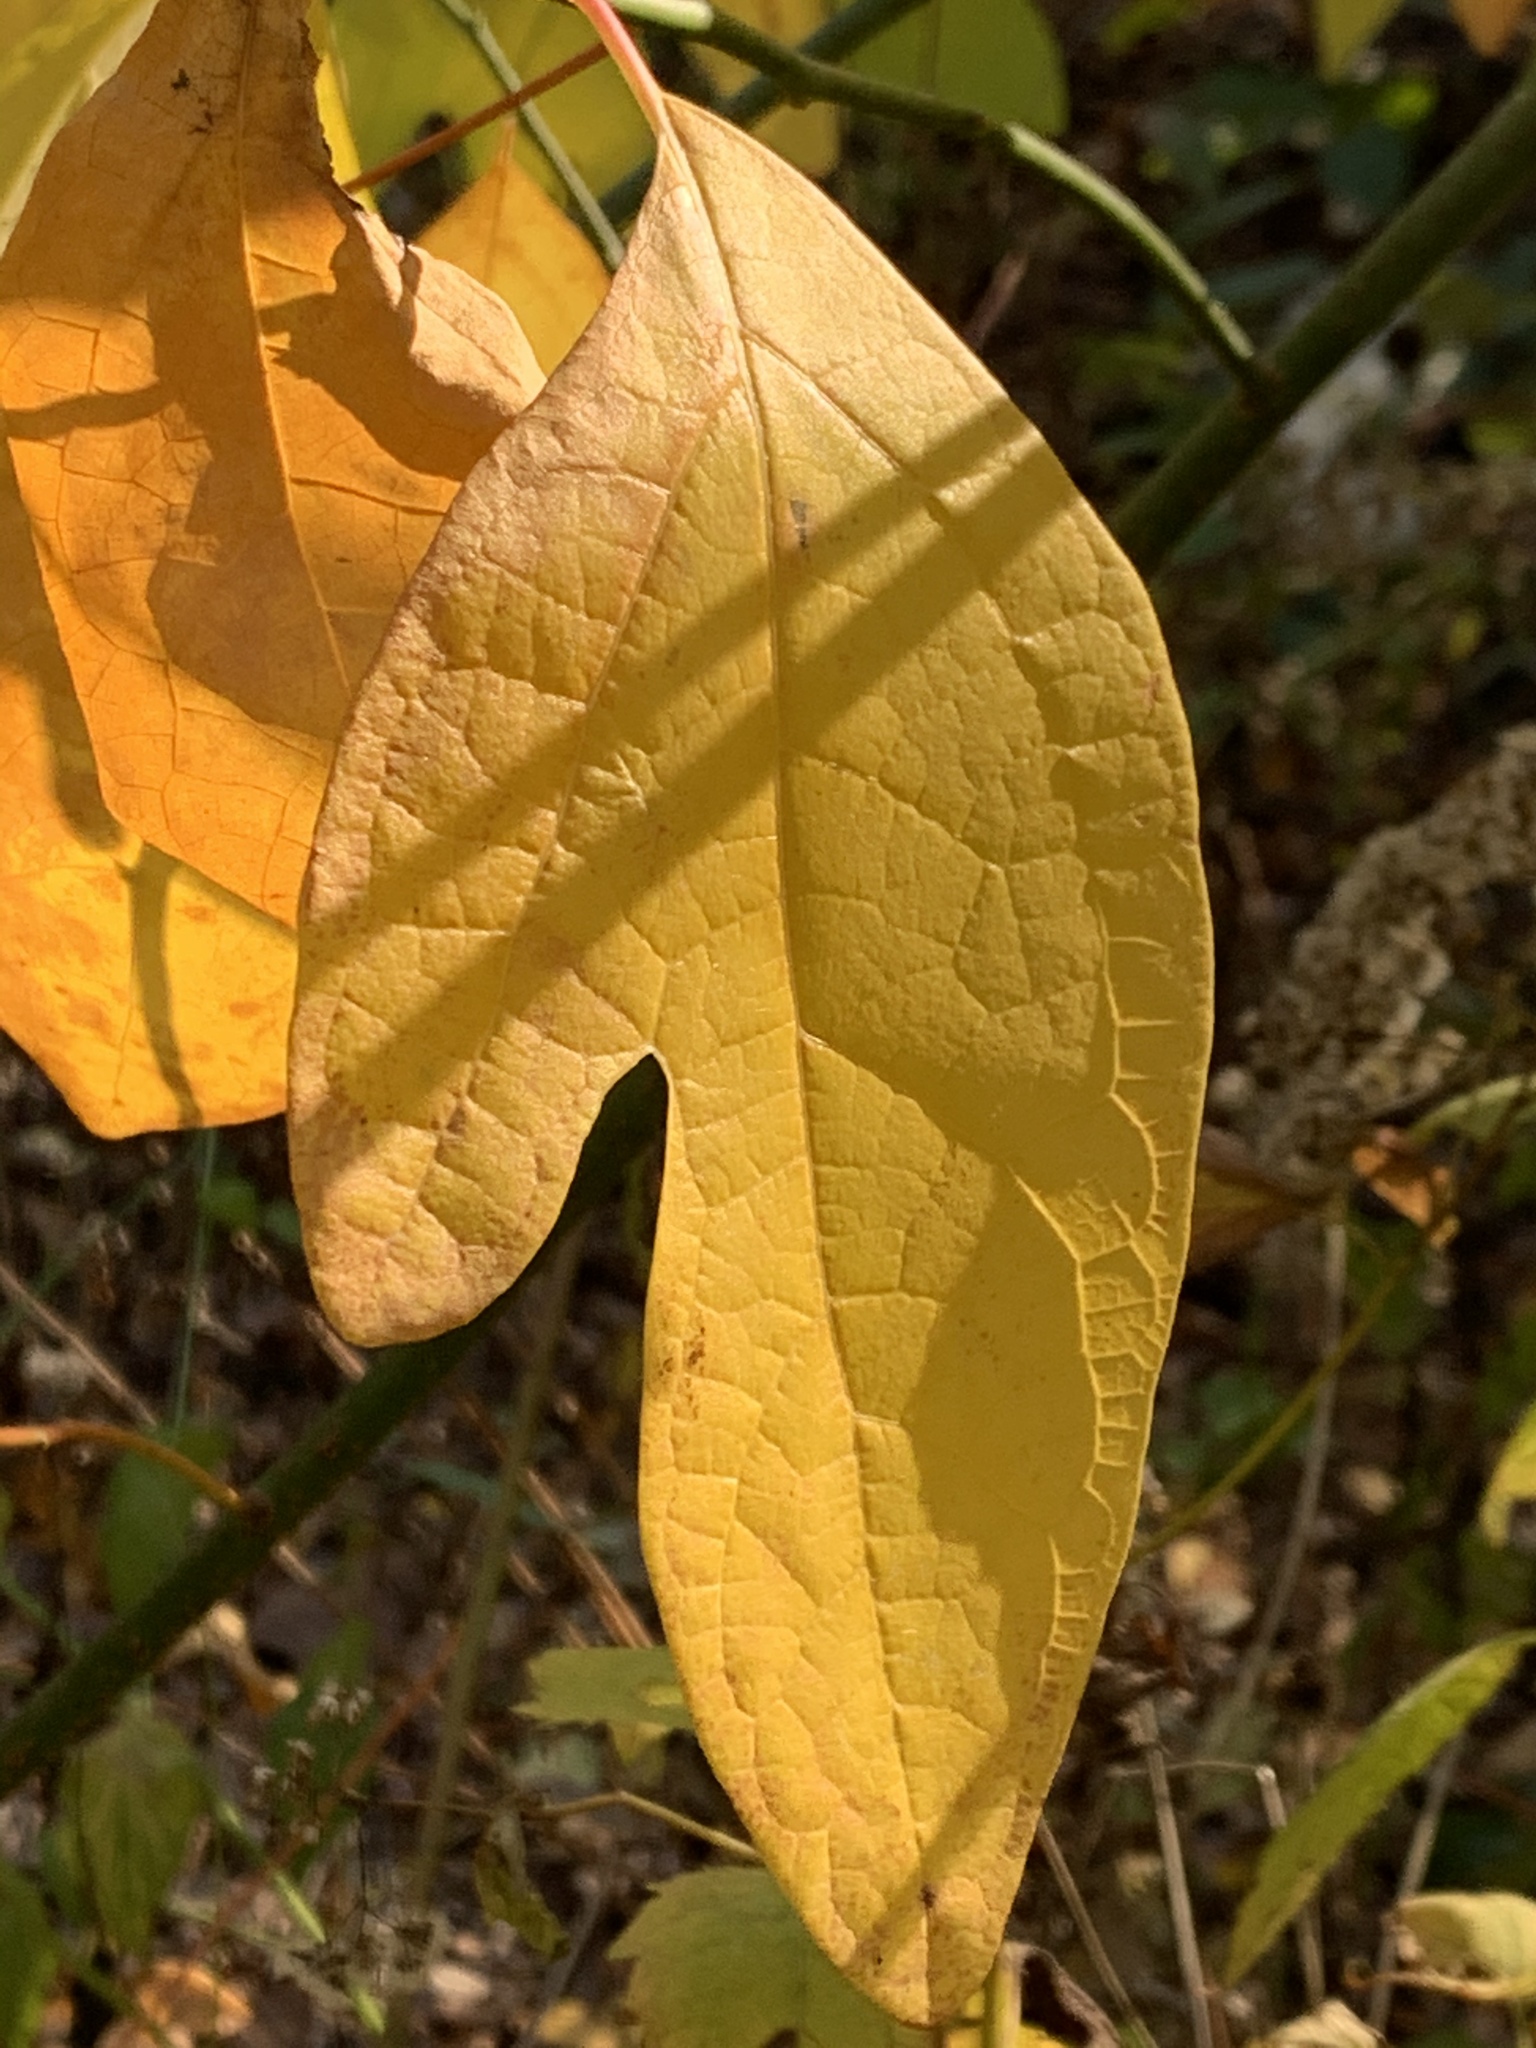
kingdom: Plantae
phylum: Tracheophyta
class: Magnoliopsida
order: Laurales
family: Lauraceae
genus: Sassafras
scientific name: Sassafras albidum
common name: Sassafras
